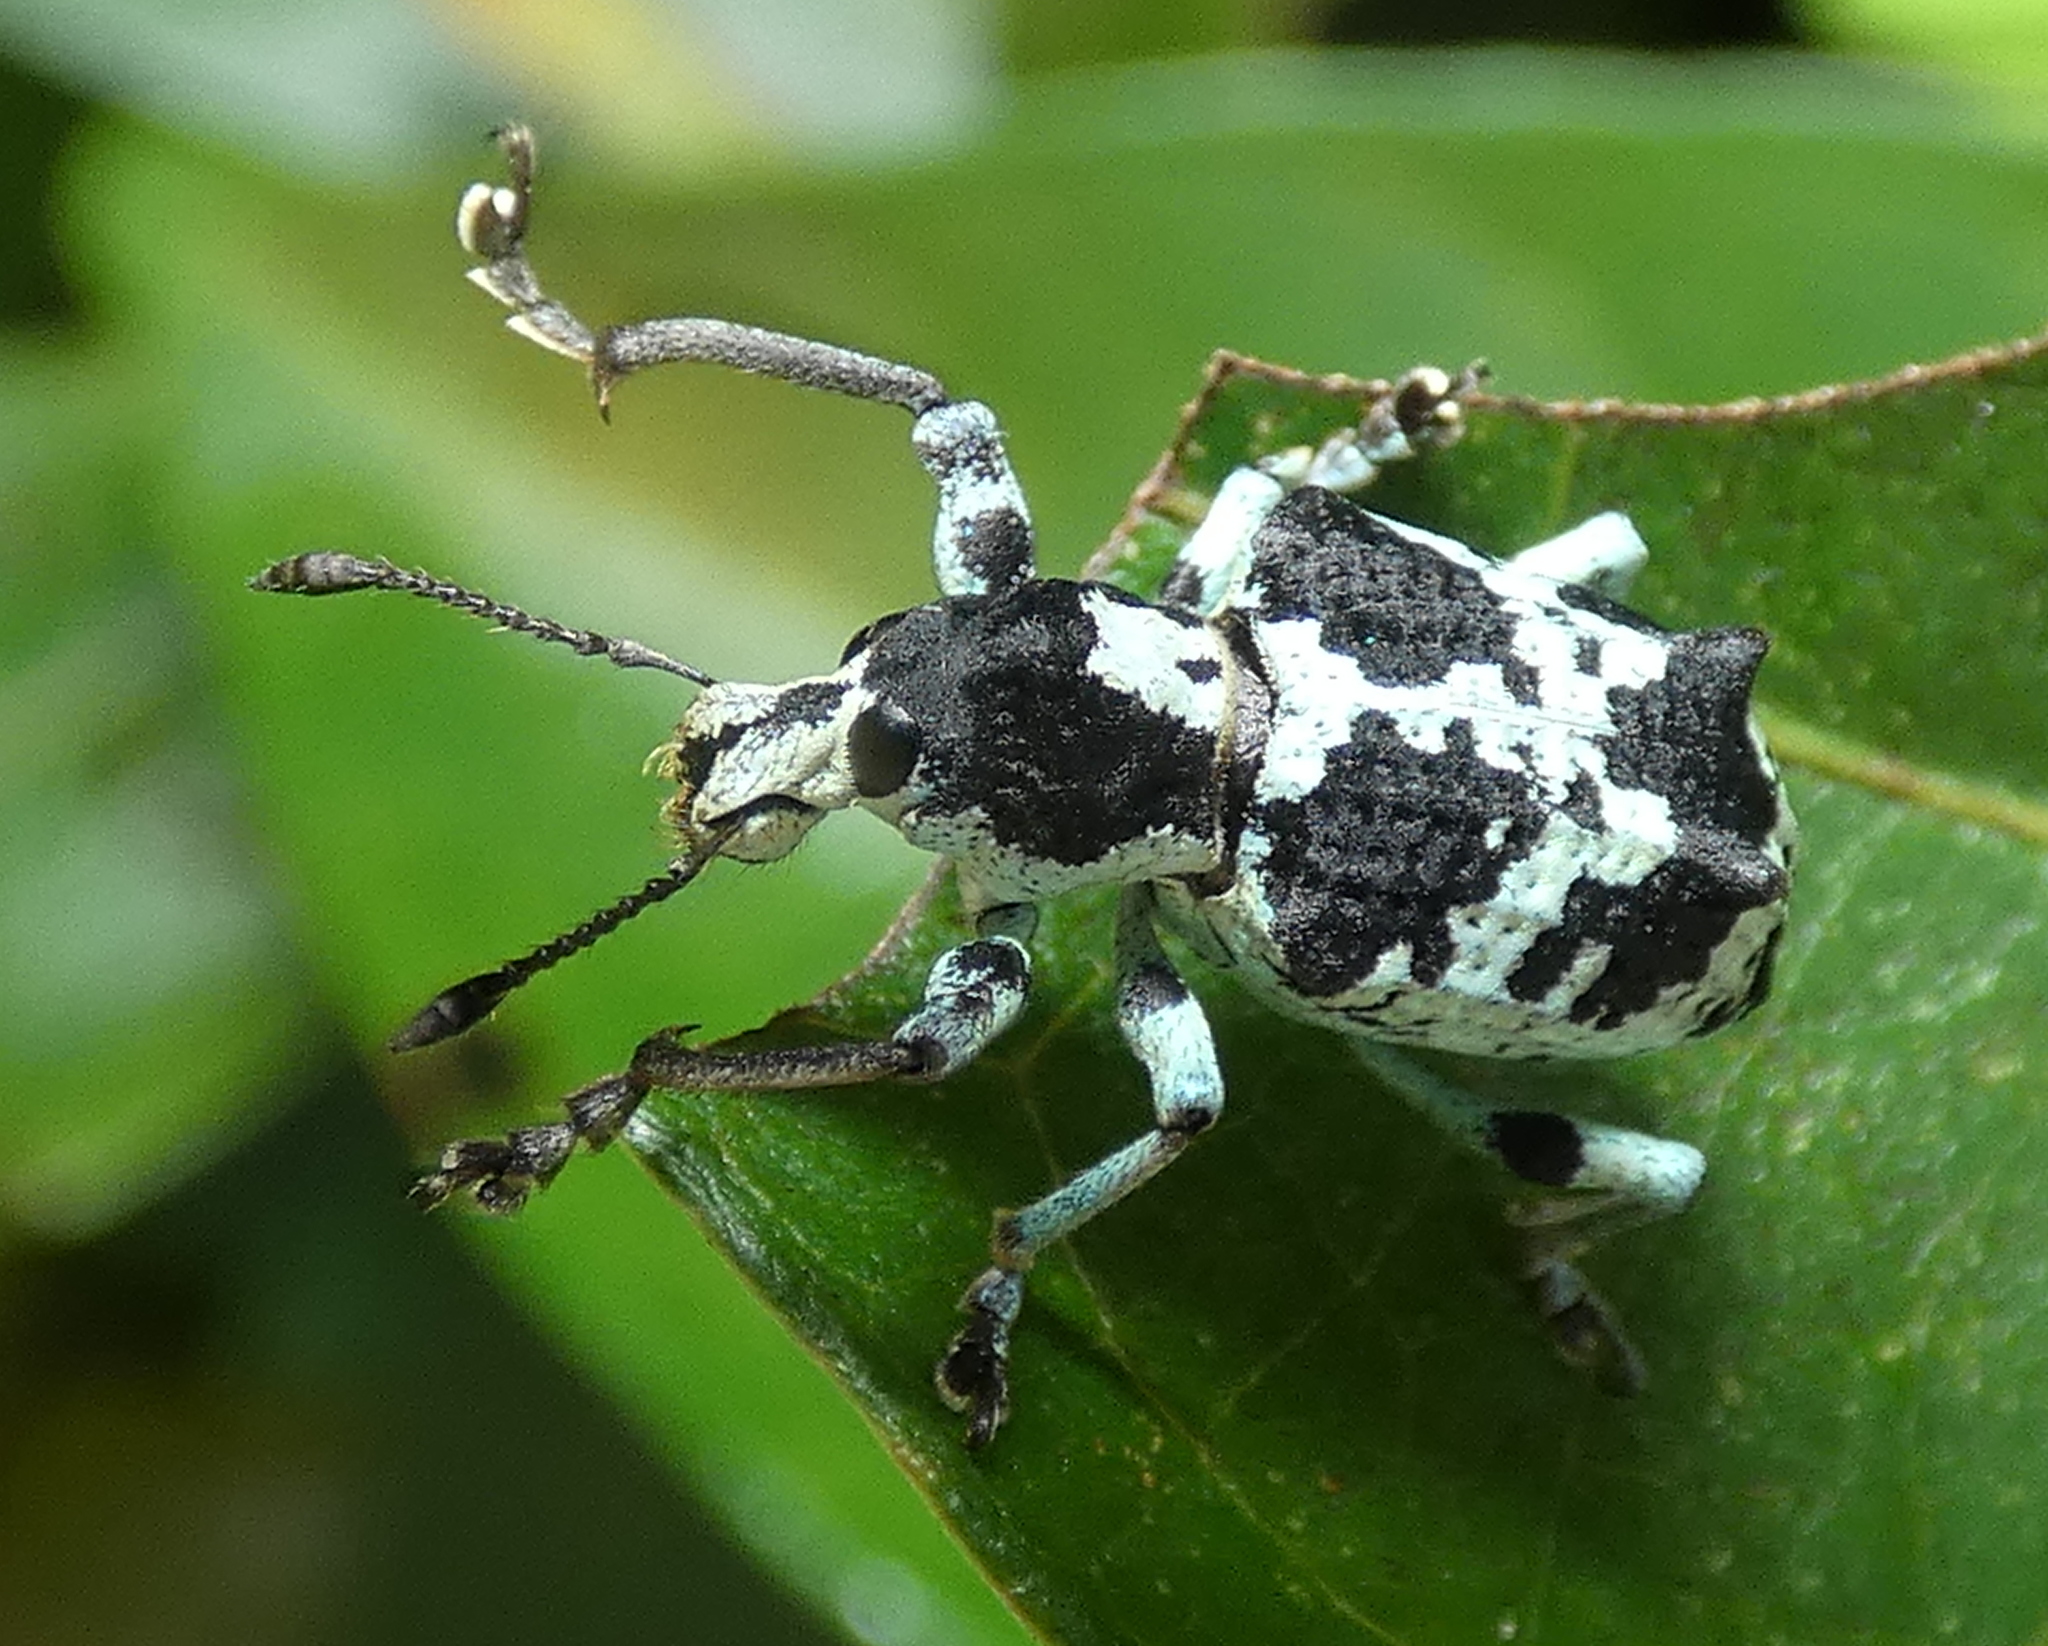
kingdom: Animalia
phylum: Arthropoda
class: Insecta
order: Coleoptera
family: Curculionidae
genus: Rhigus
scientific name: Rhigus dejeanii
